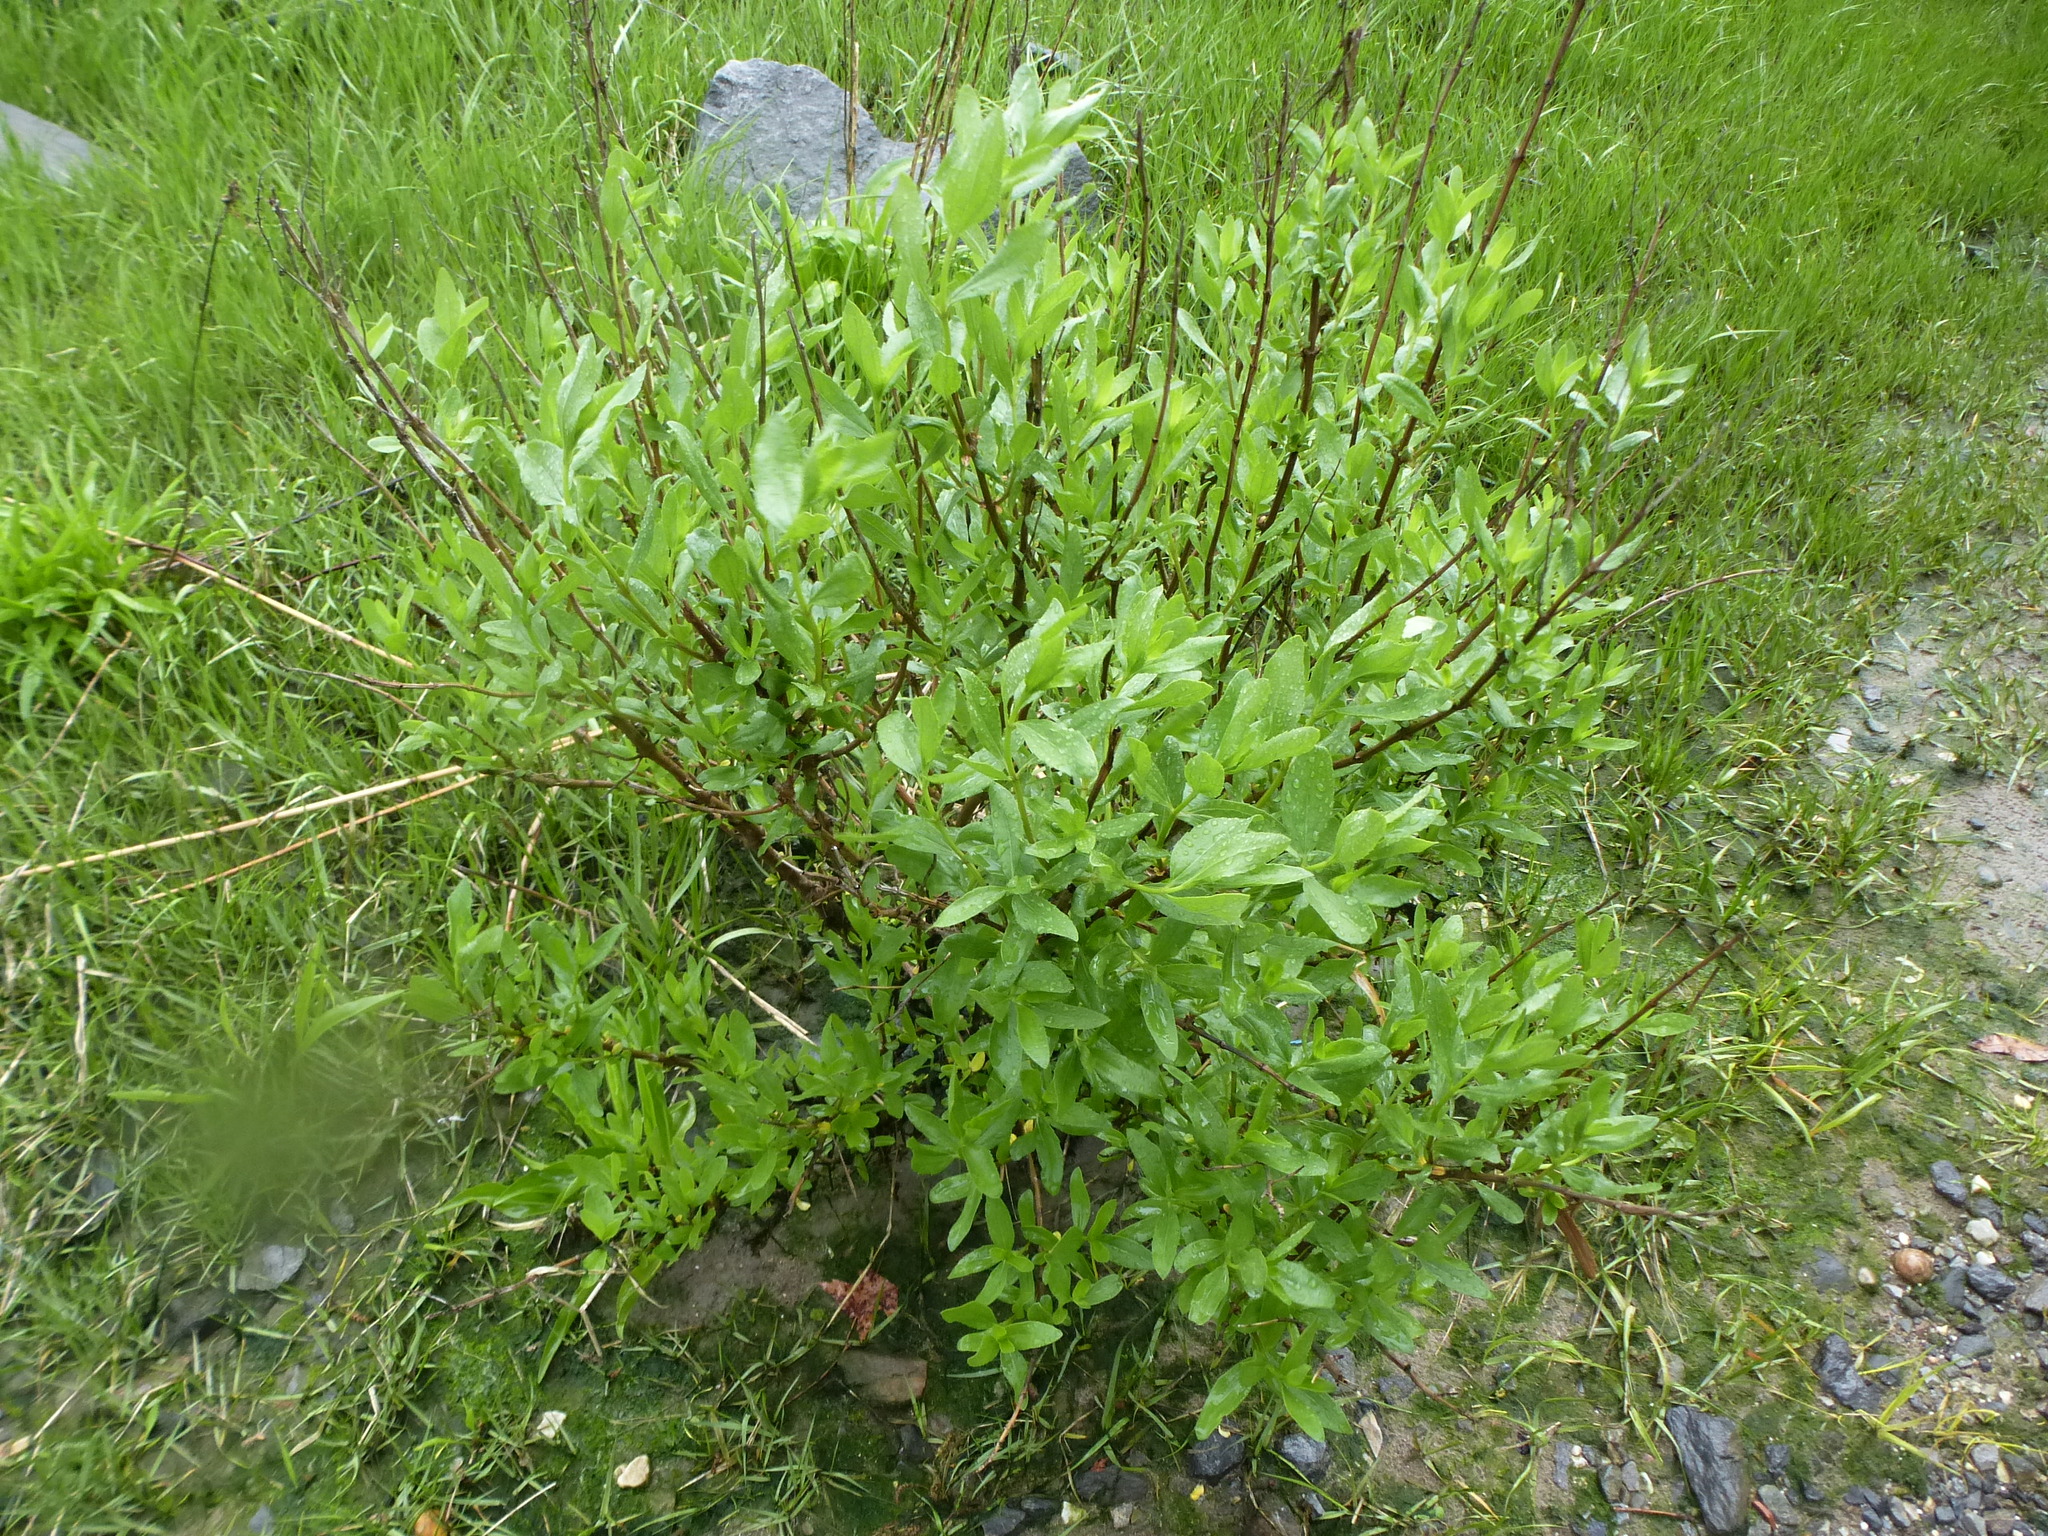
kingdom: Plantae
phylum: Tracheophyta
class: Magnoliopsida
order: Asterales
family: Asteraceae
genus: Iva
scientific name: Iva frutescens
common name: Big-leaved marsh-elder
